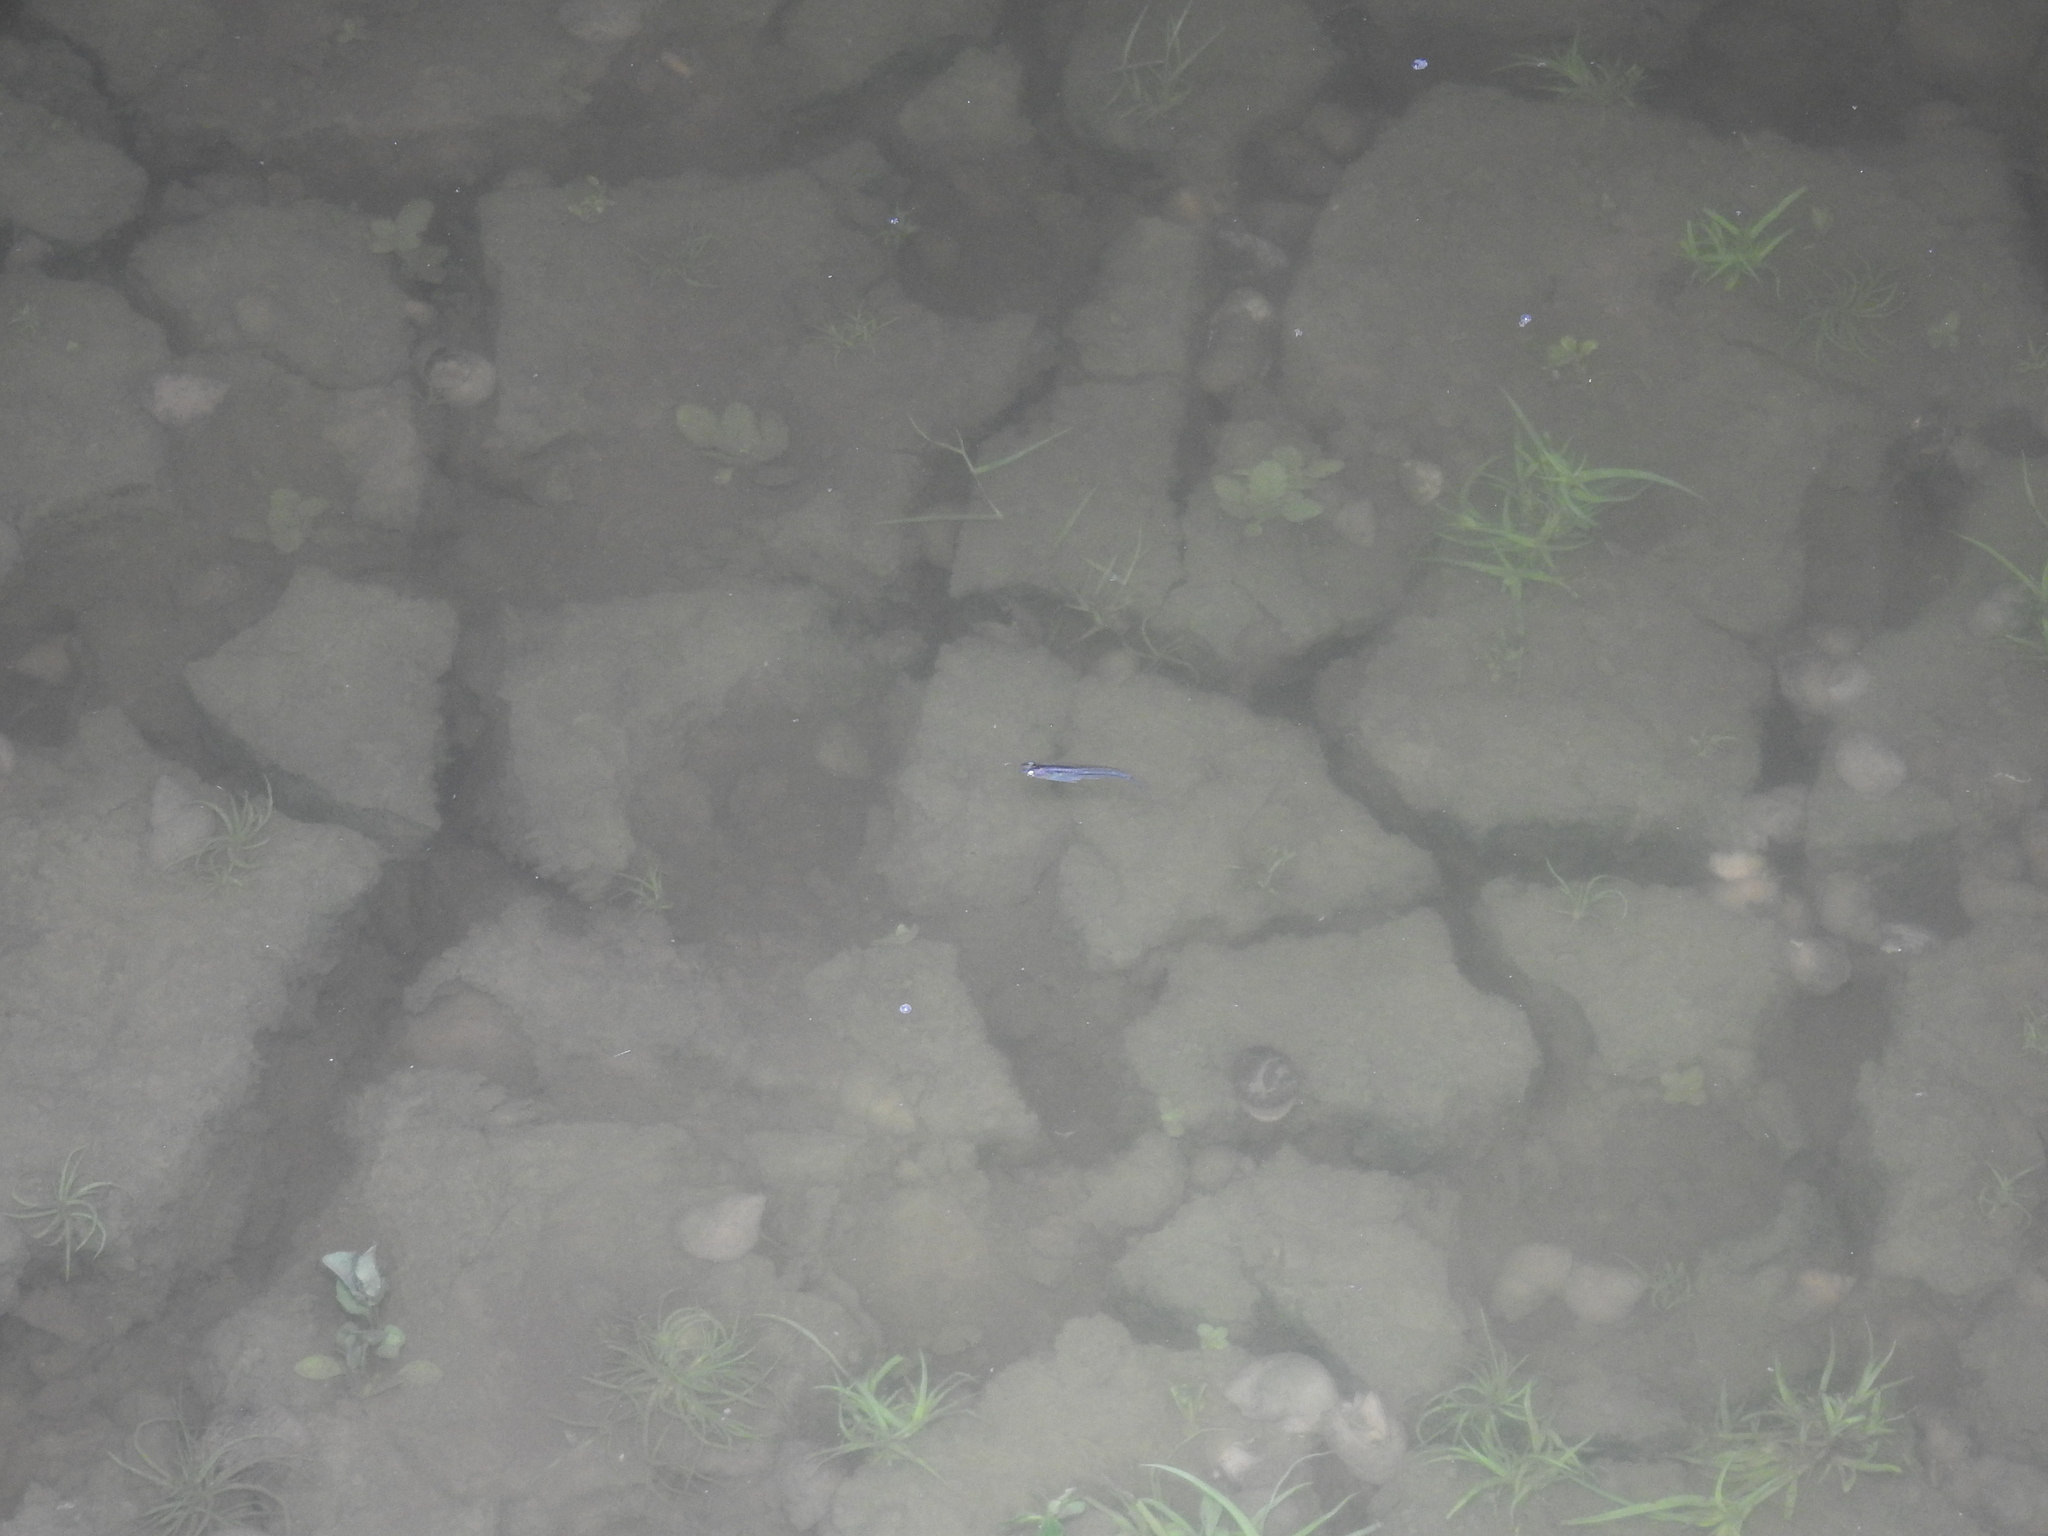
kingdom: Animalia
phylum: Chordata
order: Beloniformes
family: Adrianichthyidae
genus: Oryzias
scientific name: Oryzias dancena
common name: Indian ricefish
